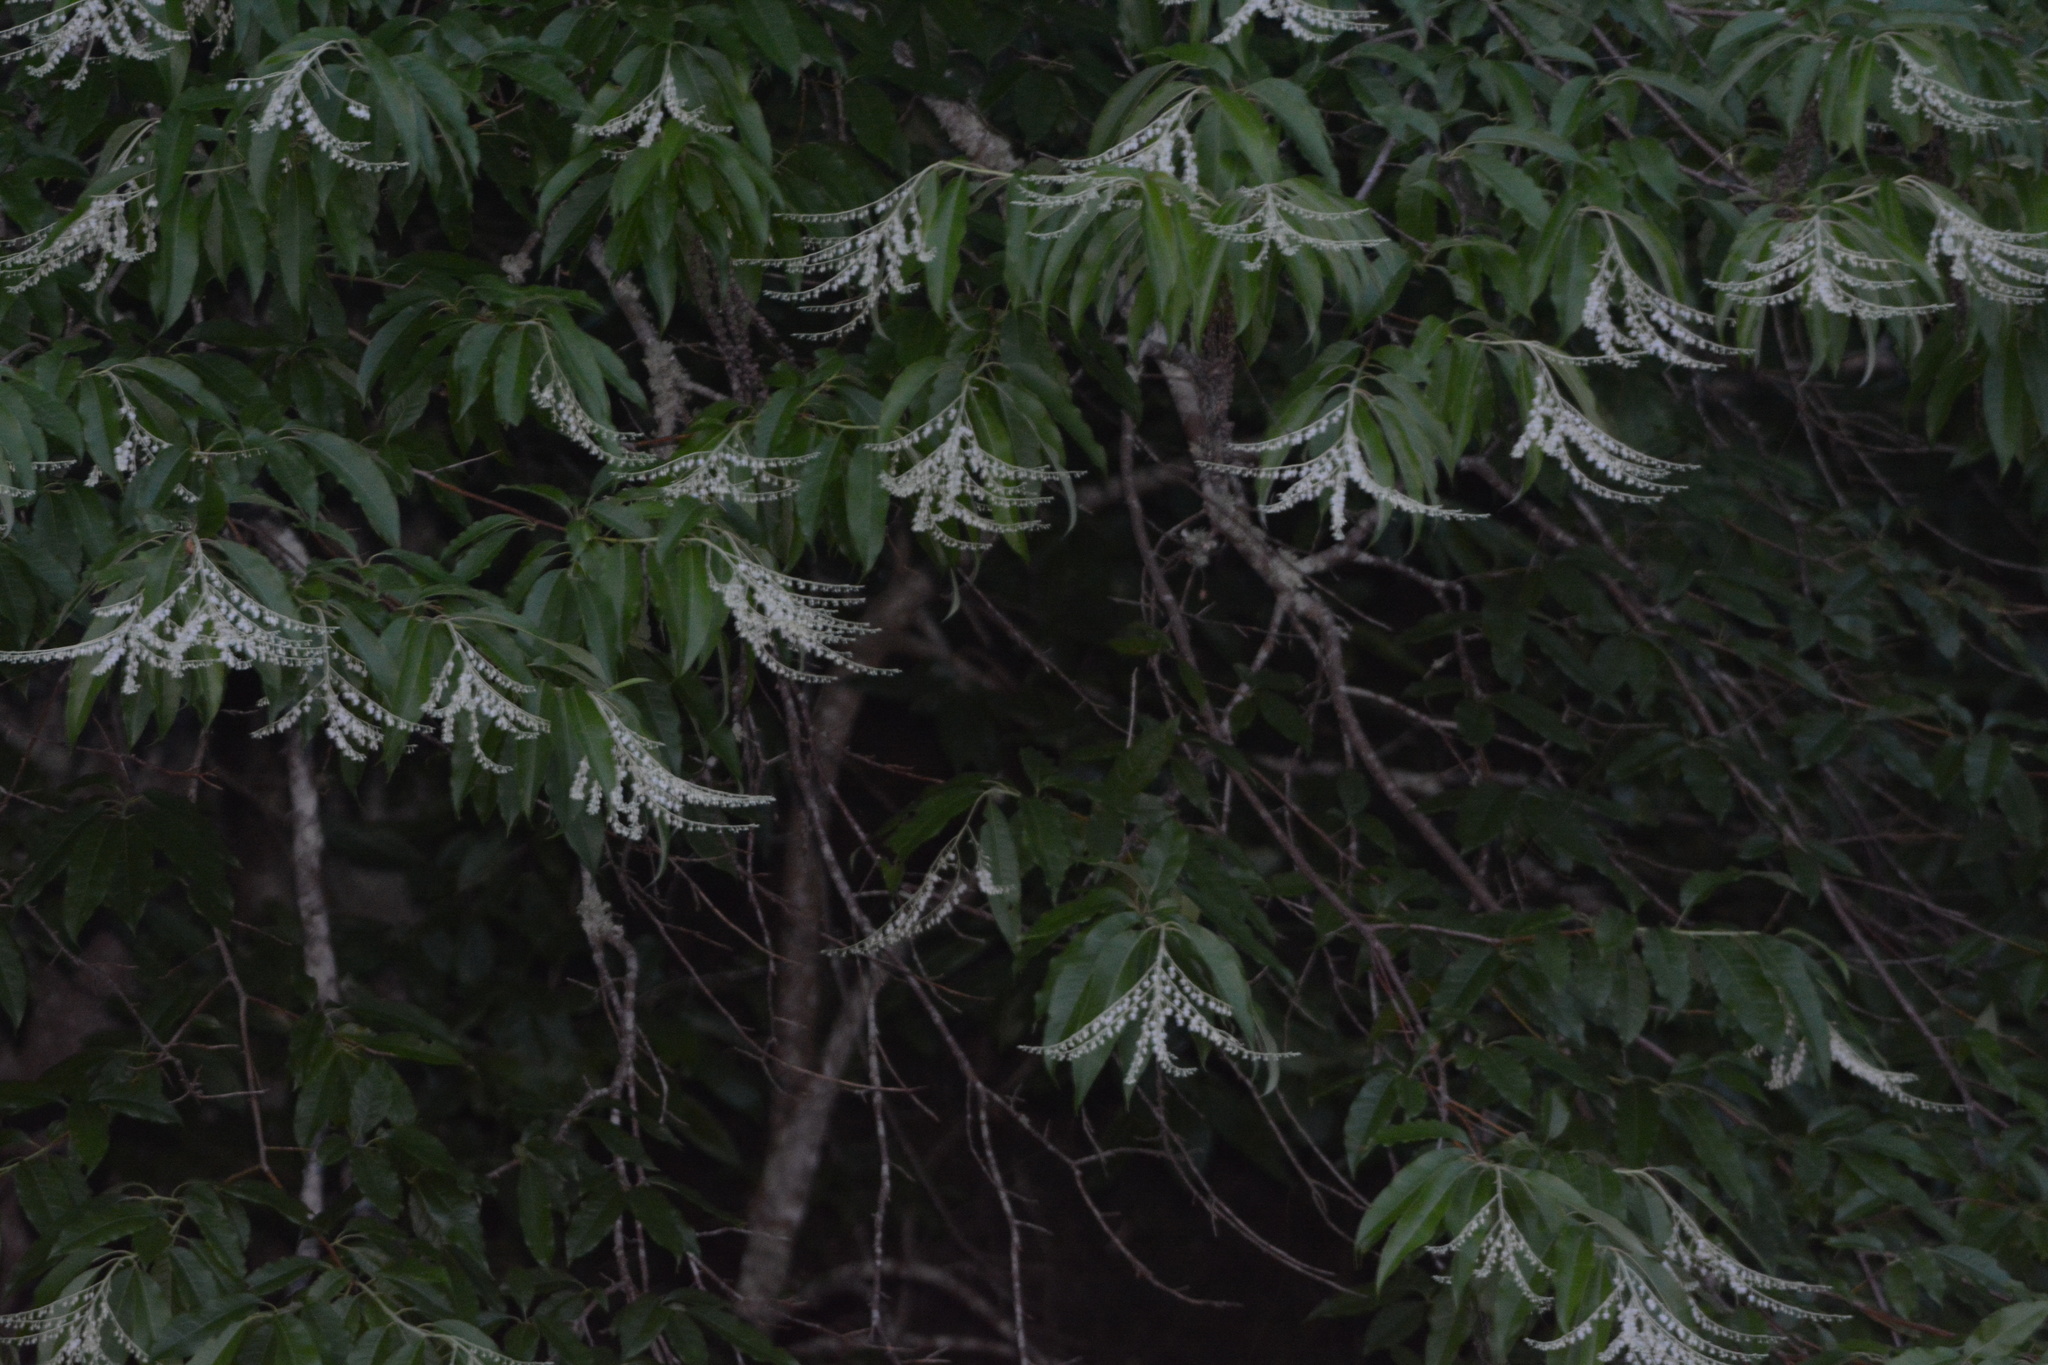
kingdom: Plantae
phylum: Tracheophyta
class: Magnoliopsida
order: Ericales
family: Ericaceae
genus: Oxydendrum
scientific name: Oxydendrum arboreum
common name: Sourwood
